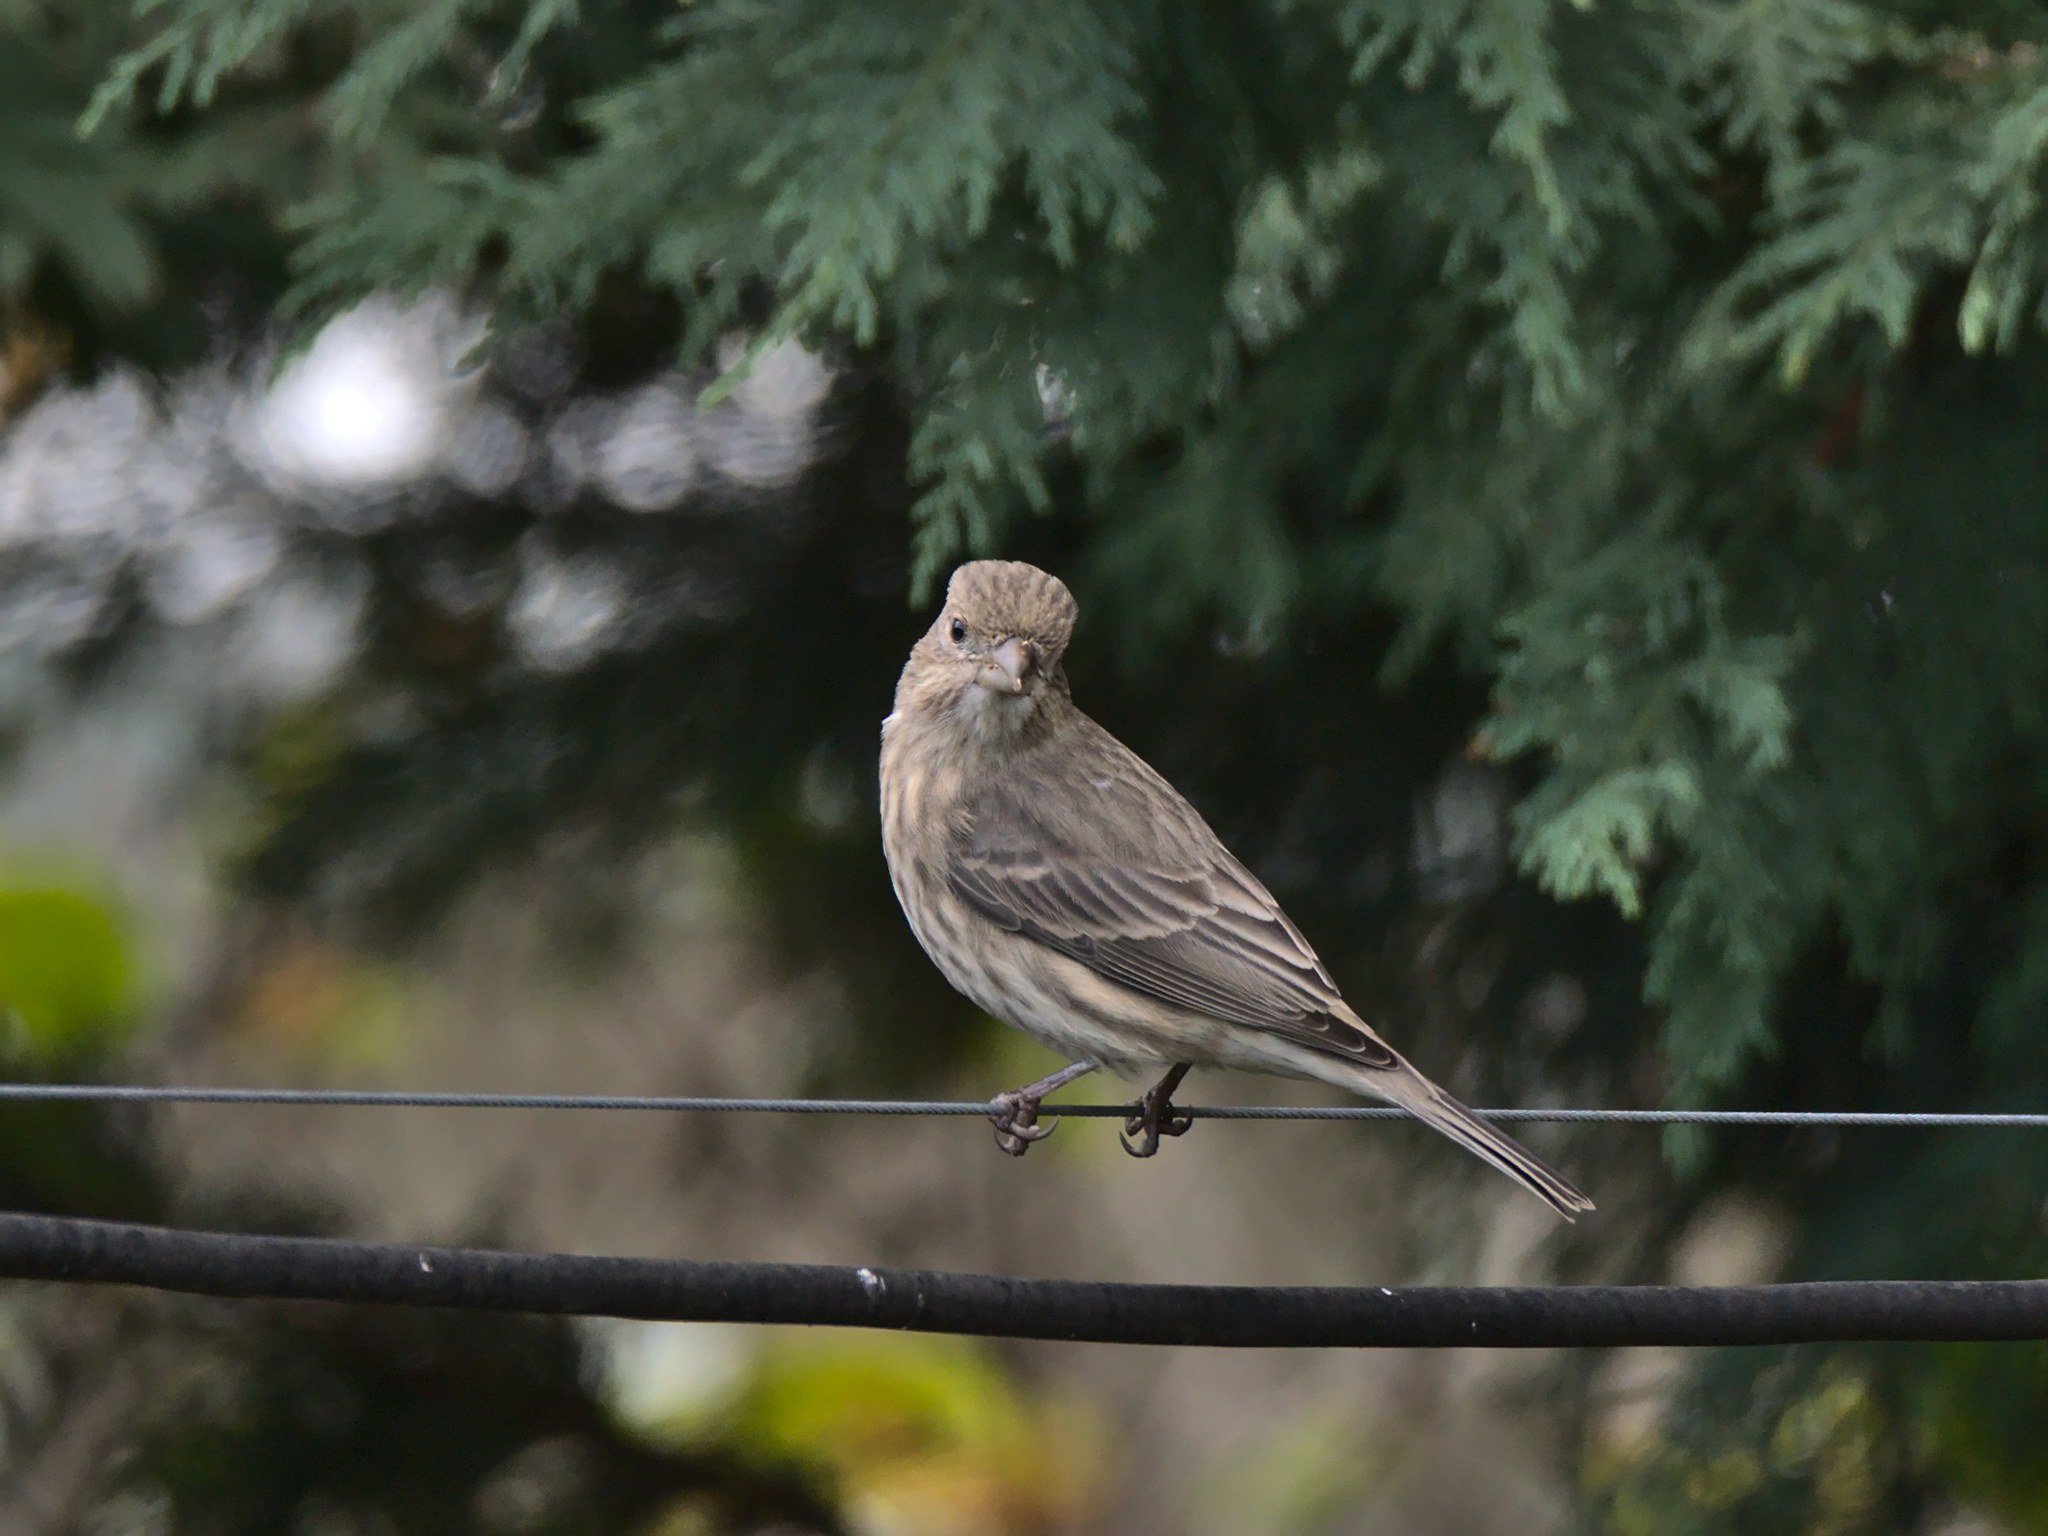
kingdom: Animalia
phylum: Chordata
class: Aves
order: Passeriformes
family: Fringillidae
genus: Haemorhous
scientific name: Haemorhous mexicanus
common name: House finch
